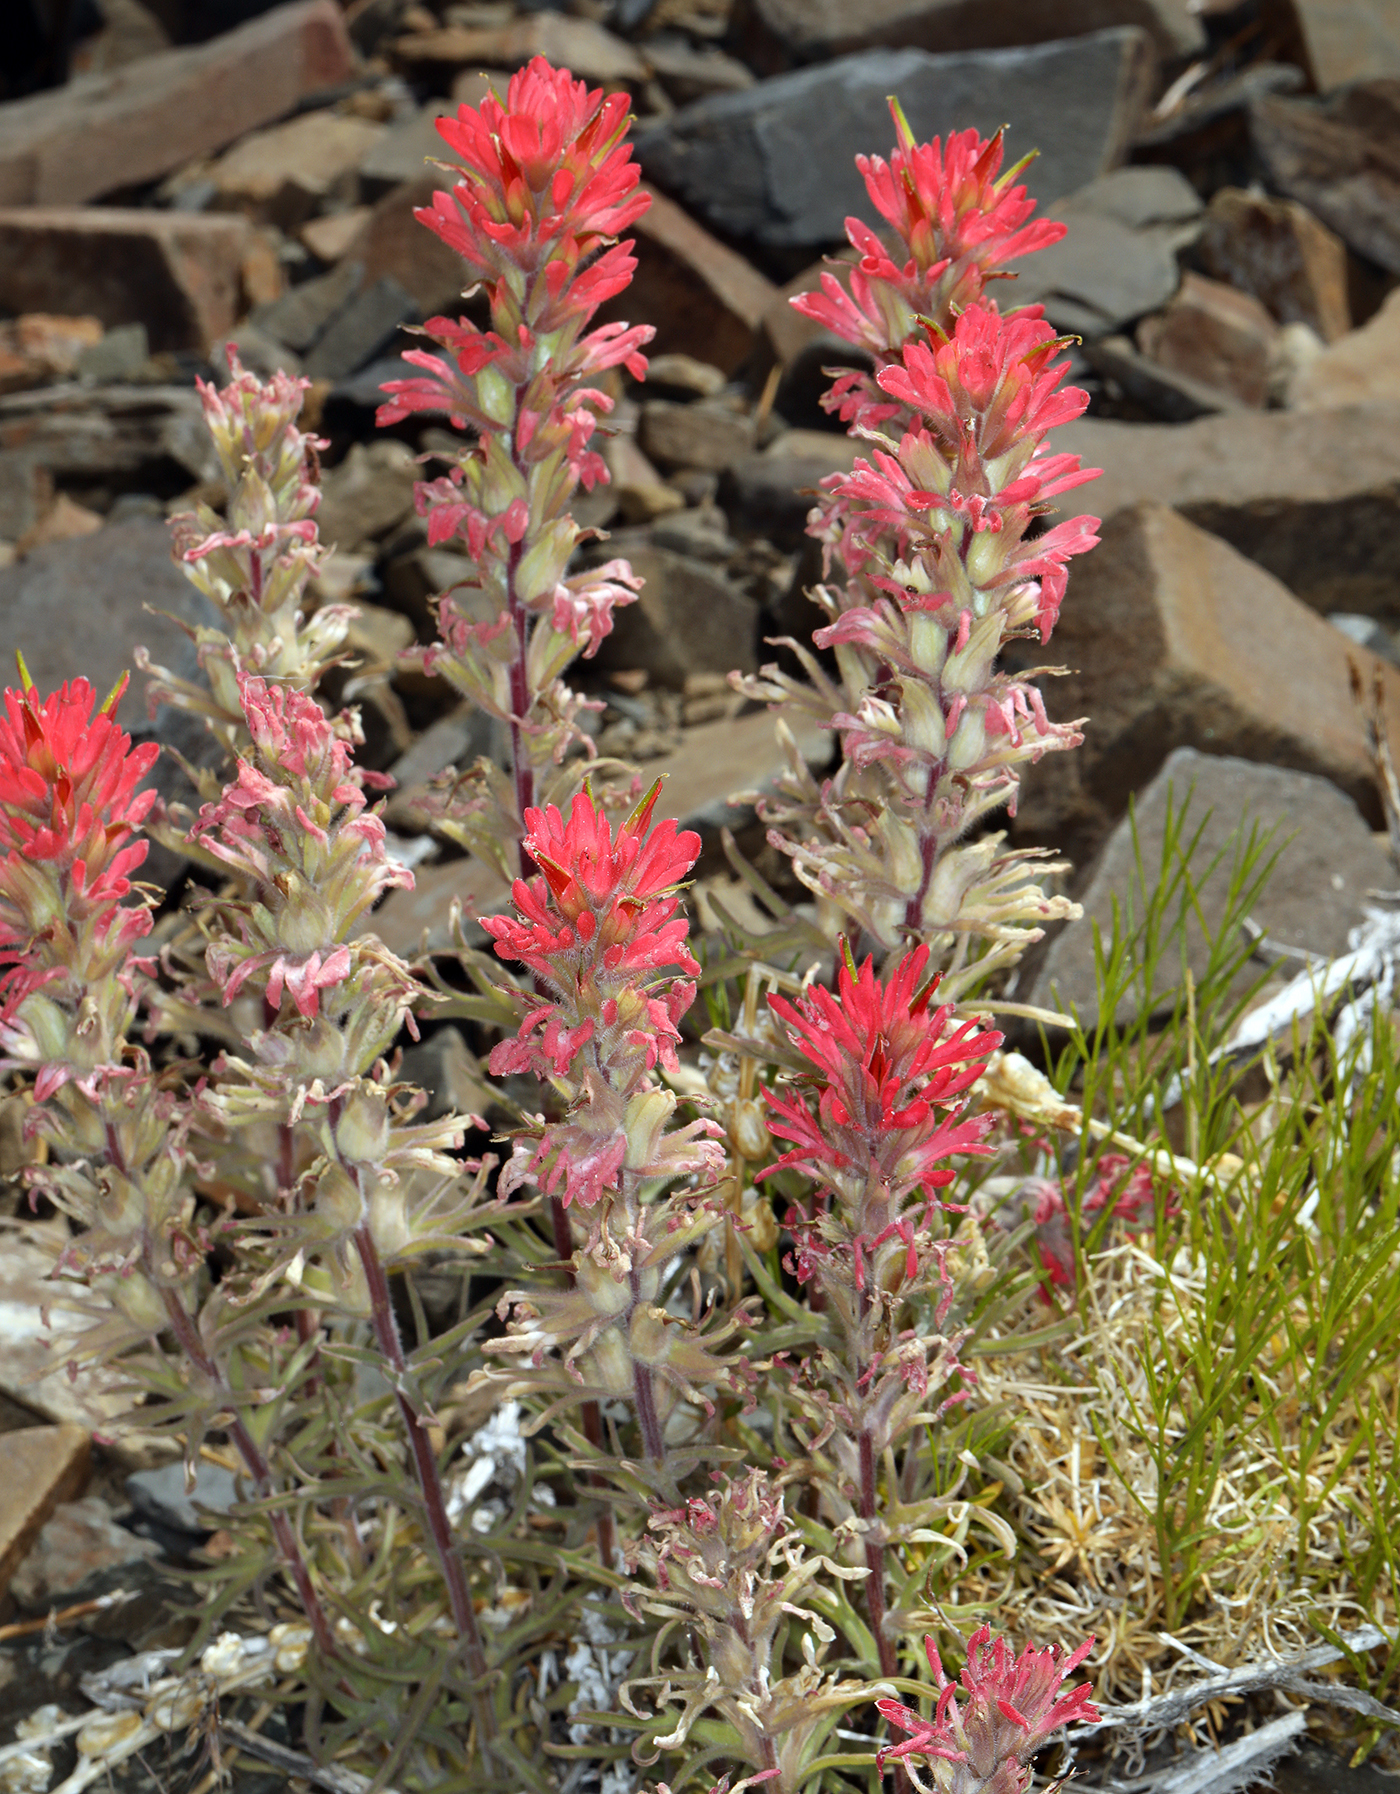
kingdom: Plantae
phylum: Tracheophyta
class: Magnoliopsida
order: Lamiales
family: Orobanchaceae
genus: Castilleja
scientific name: Castilleja chromosa
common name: Desert paintbrush
